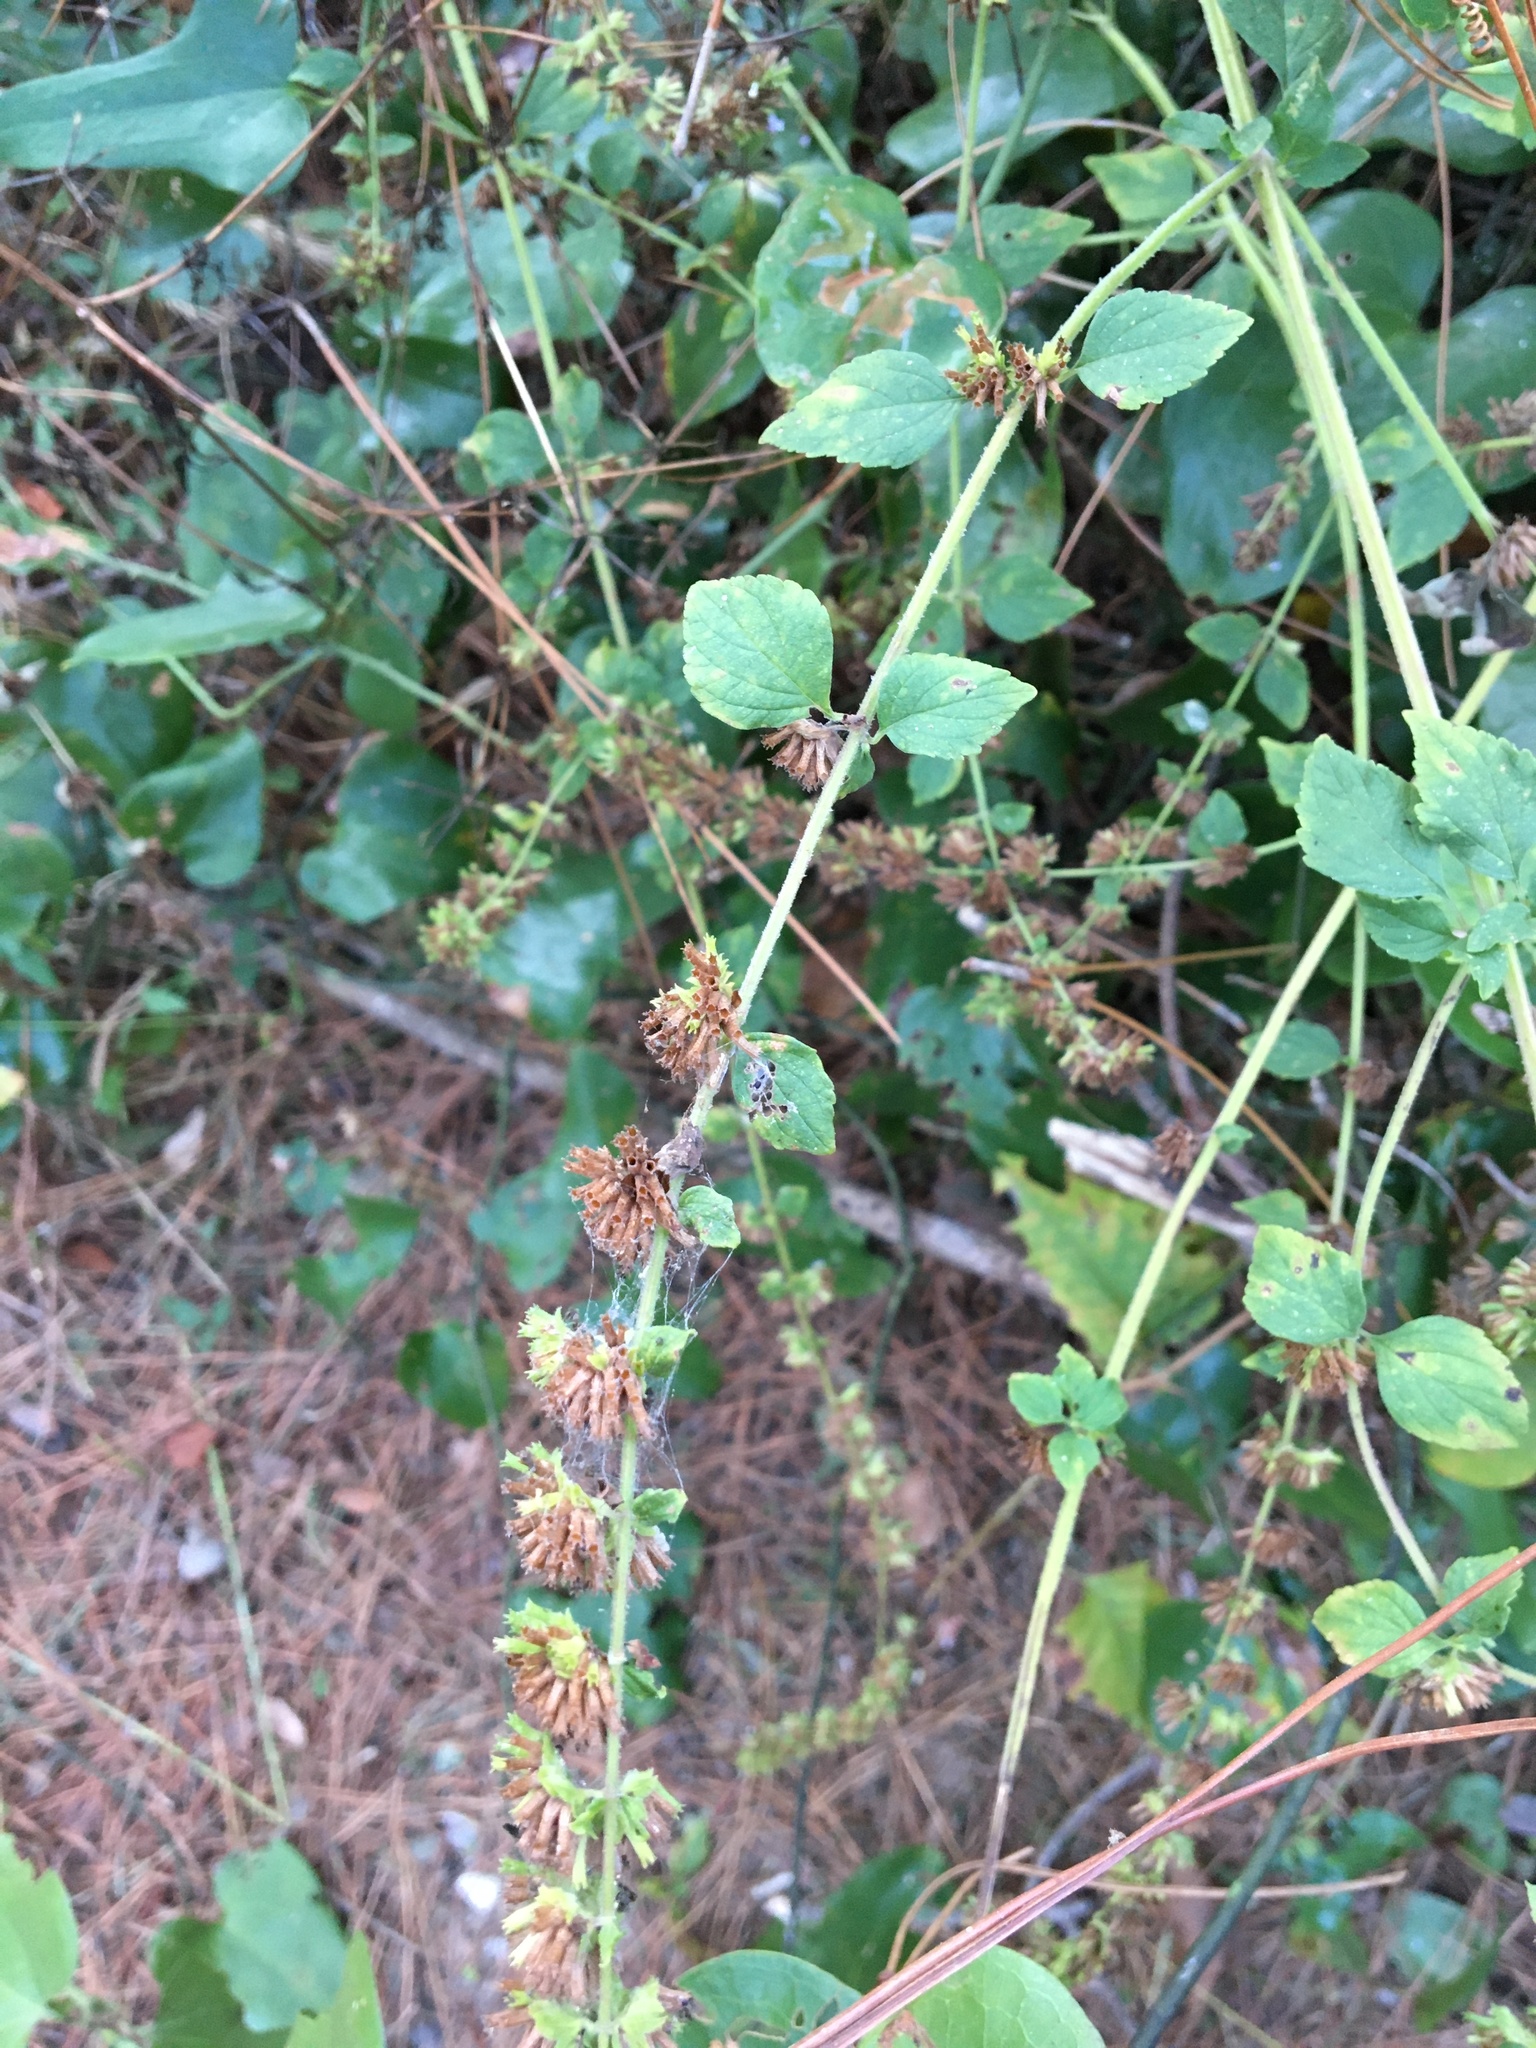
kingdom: Plantae
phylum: Tracheophyta
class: Magnoliopsida
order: Lamiales
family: Lamiaceae
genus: Cantinoa
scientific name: Cantinoa mutabilis
